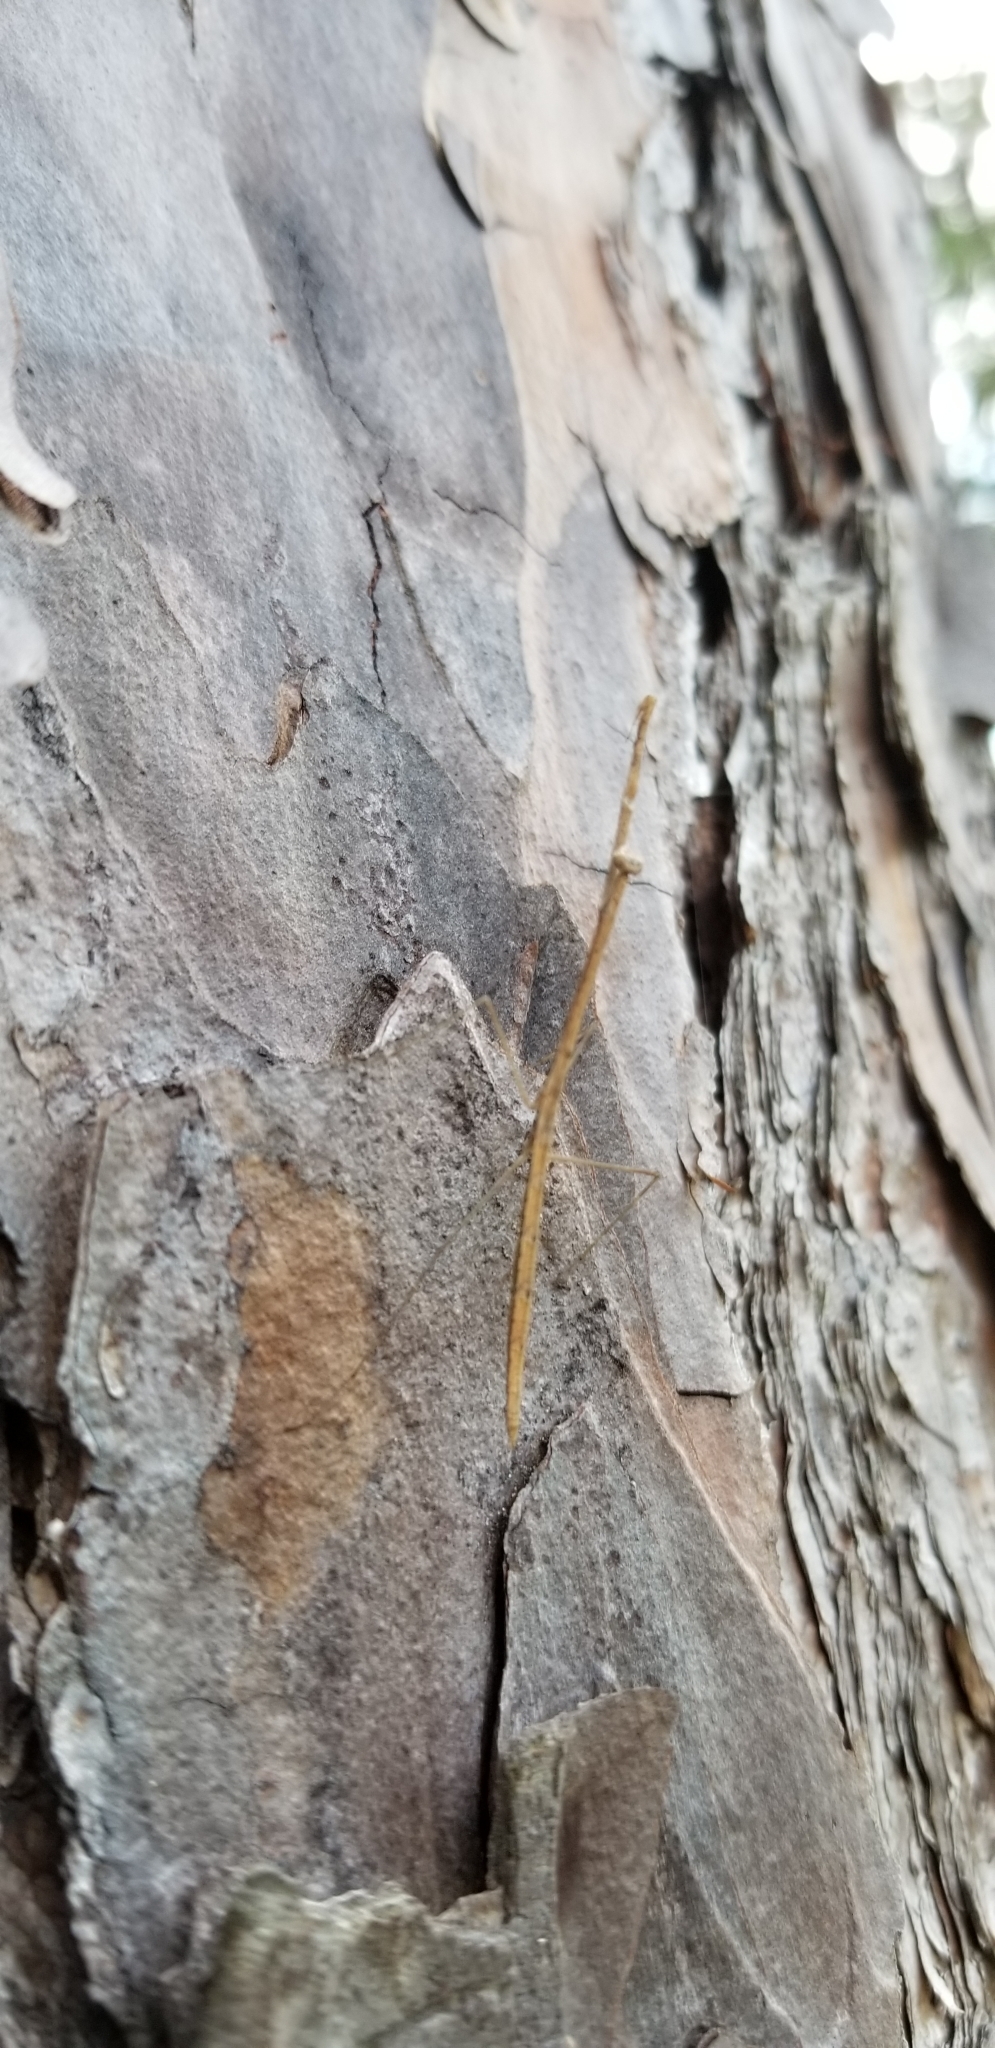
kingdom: Animalia
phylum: Arthropoda
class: Insecta
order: Mantodea
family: Thespidae
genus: Thesprotia
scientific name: Thesprotia graminis
